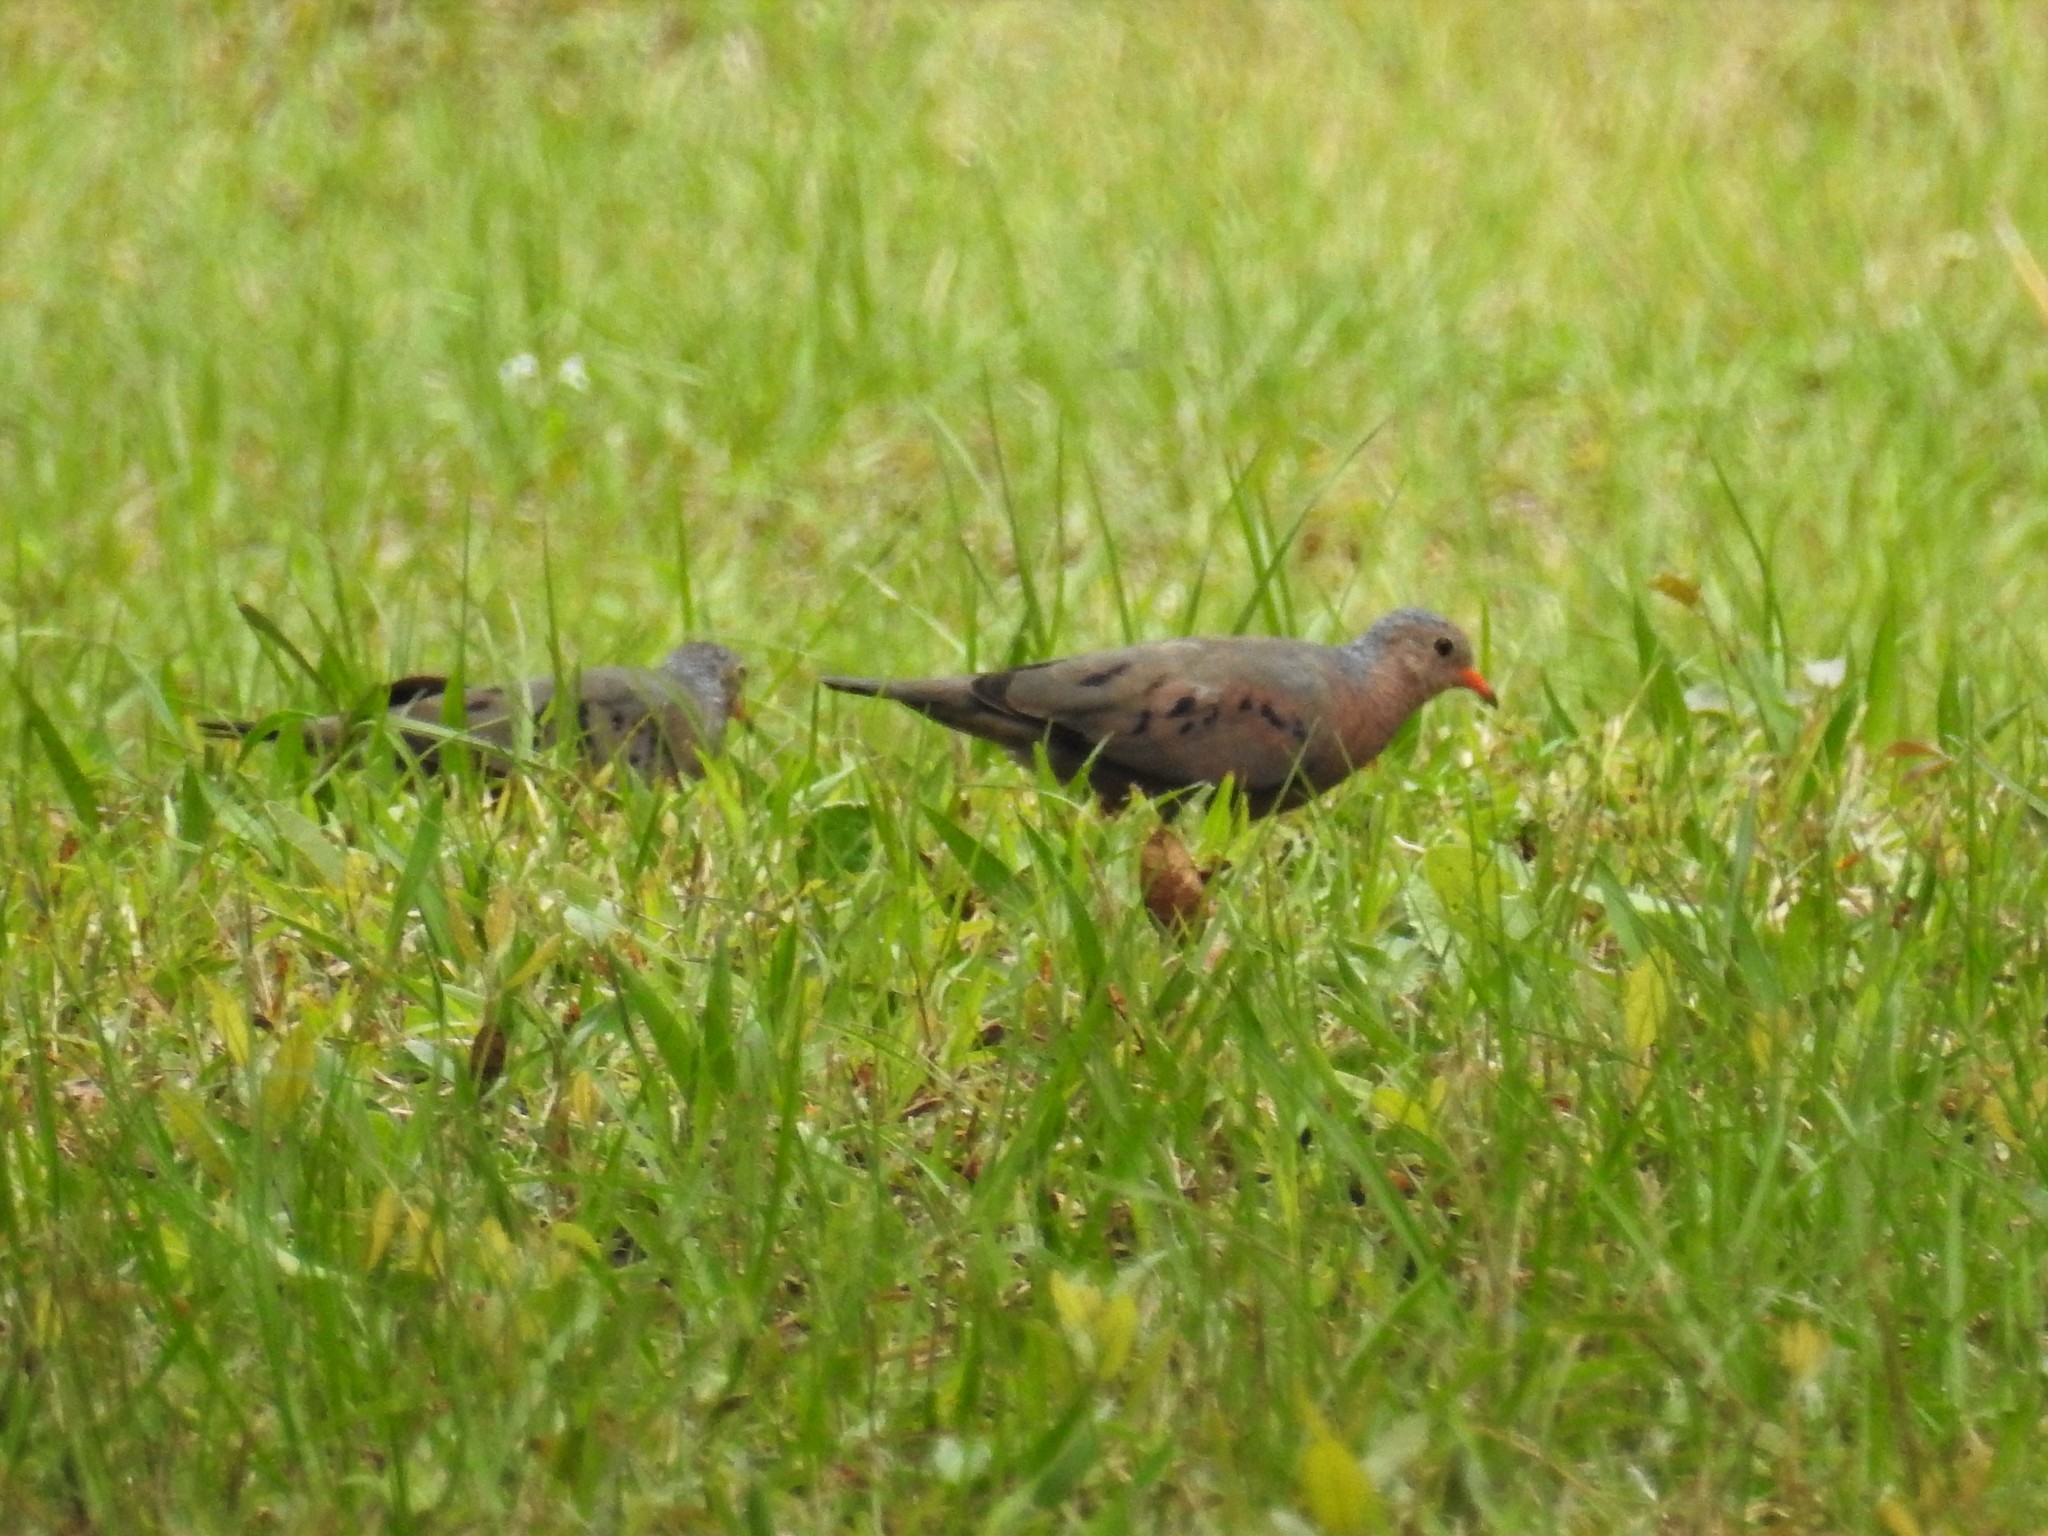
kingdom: Animalia
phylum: Chordata
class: Aves
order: Columbiformes
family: Columbidae
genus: Columbina
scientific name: Columbina passerina
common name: Common ground-dove
